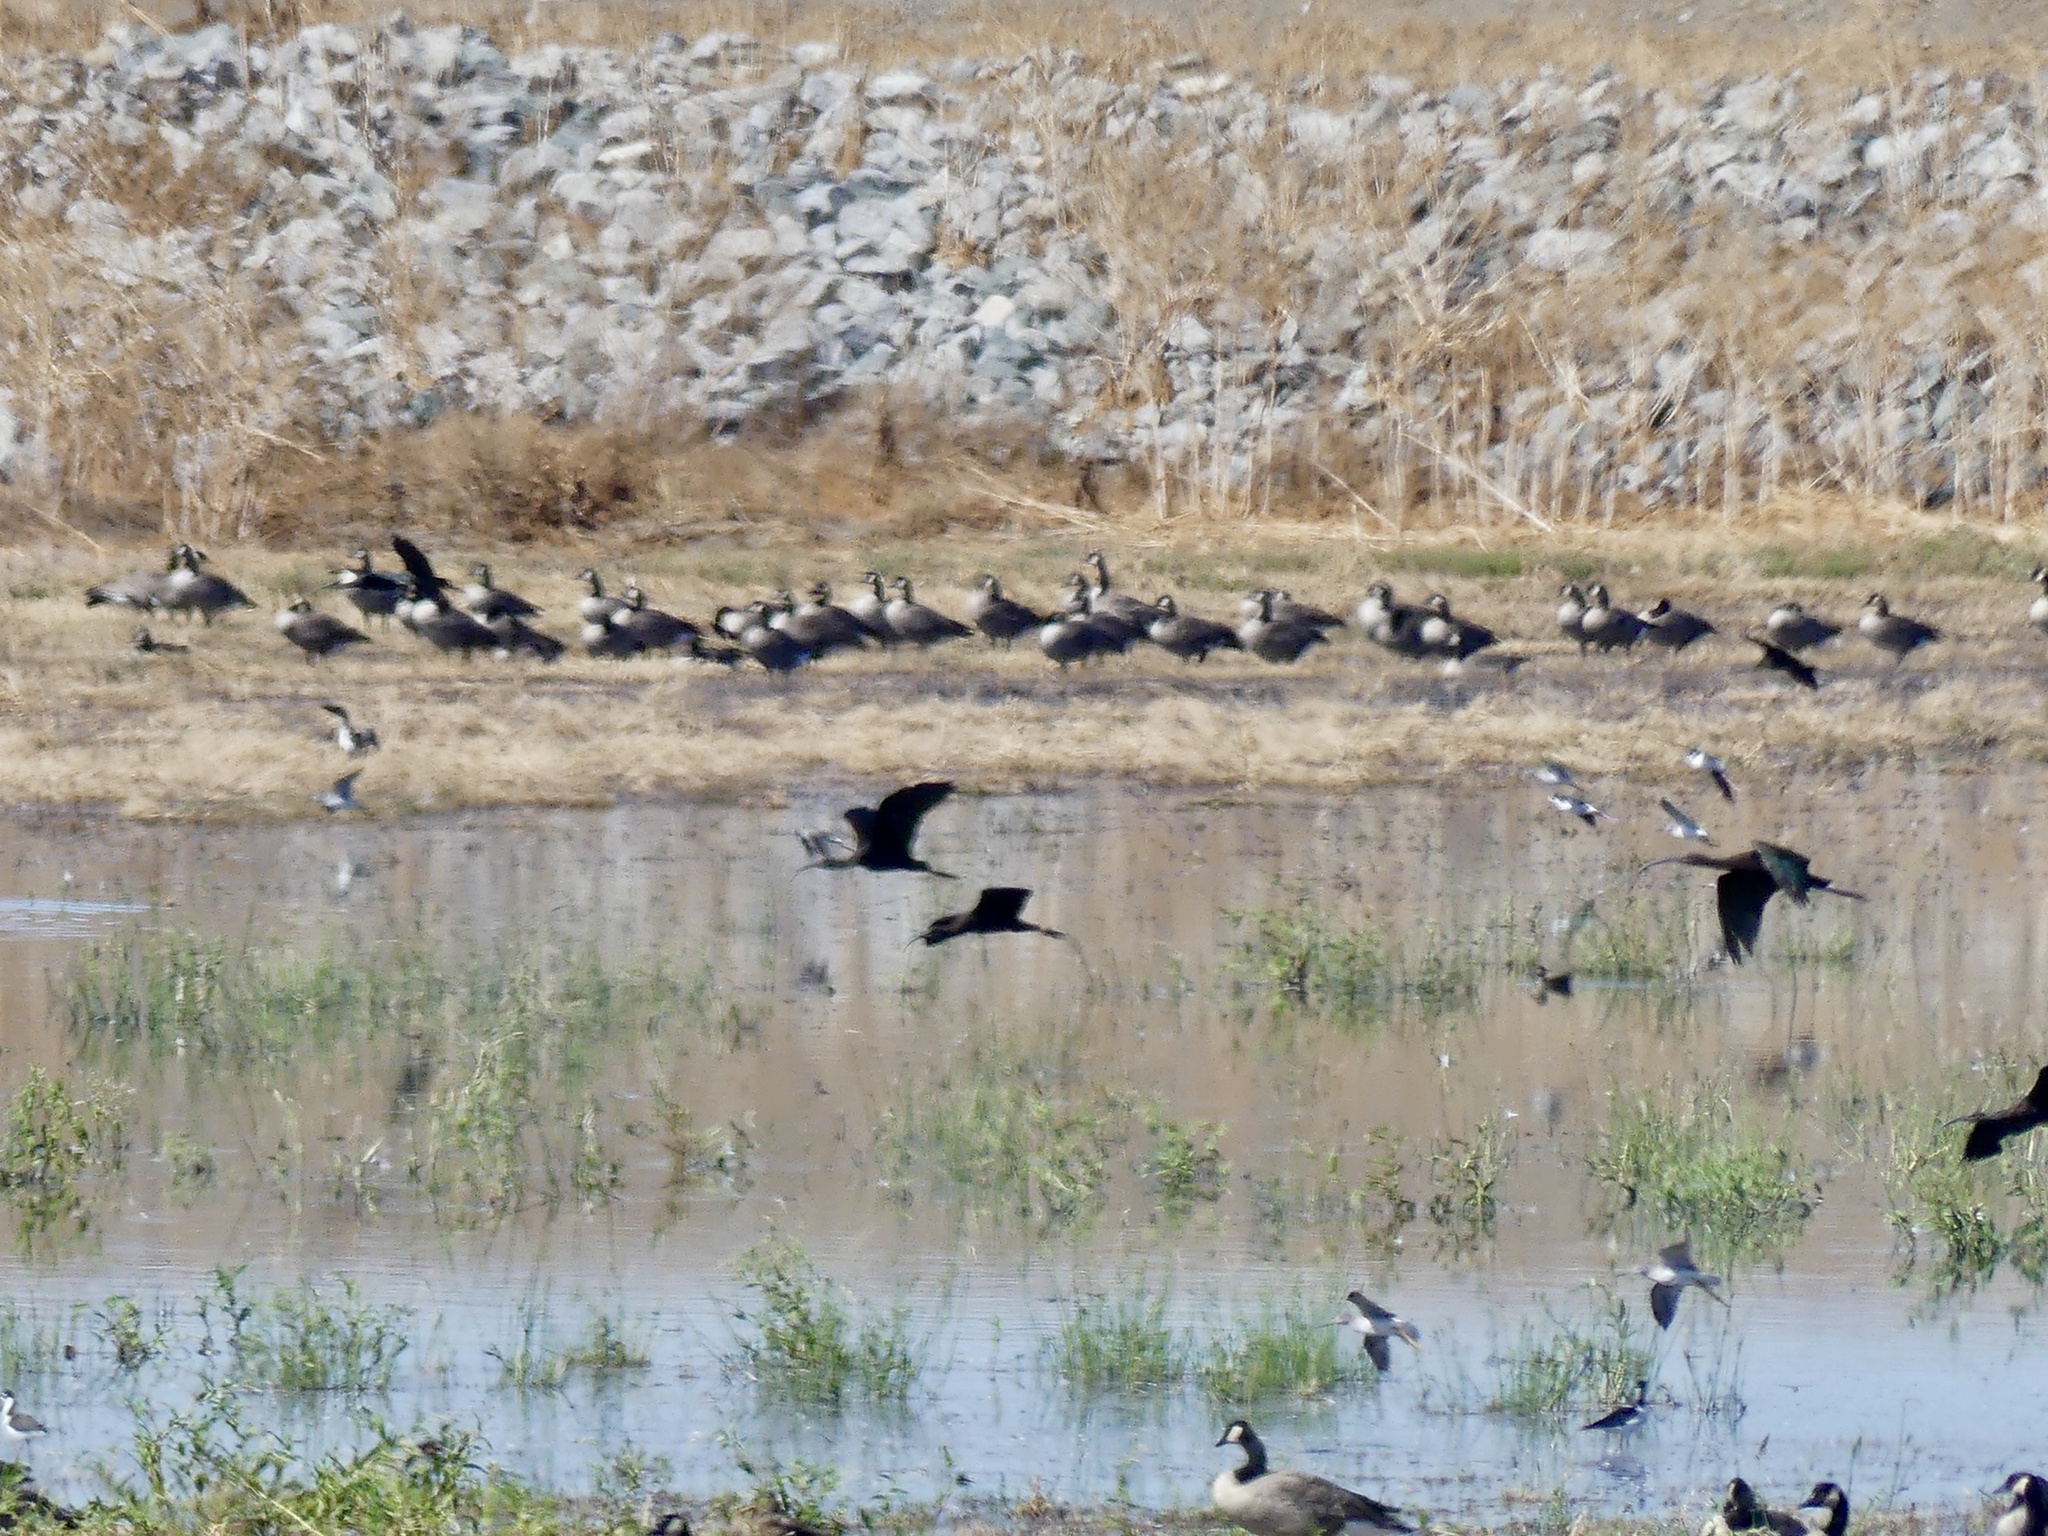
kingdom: Animalia
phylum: Chordata
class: Aves
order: Pelecaniformes
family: Threskiornithidae
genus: Plegadis
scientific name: Plegadis chihi
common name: White-faced ibis
